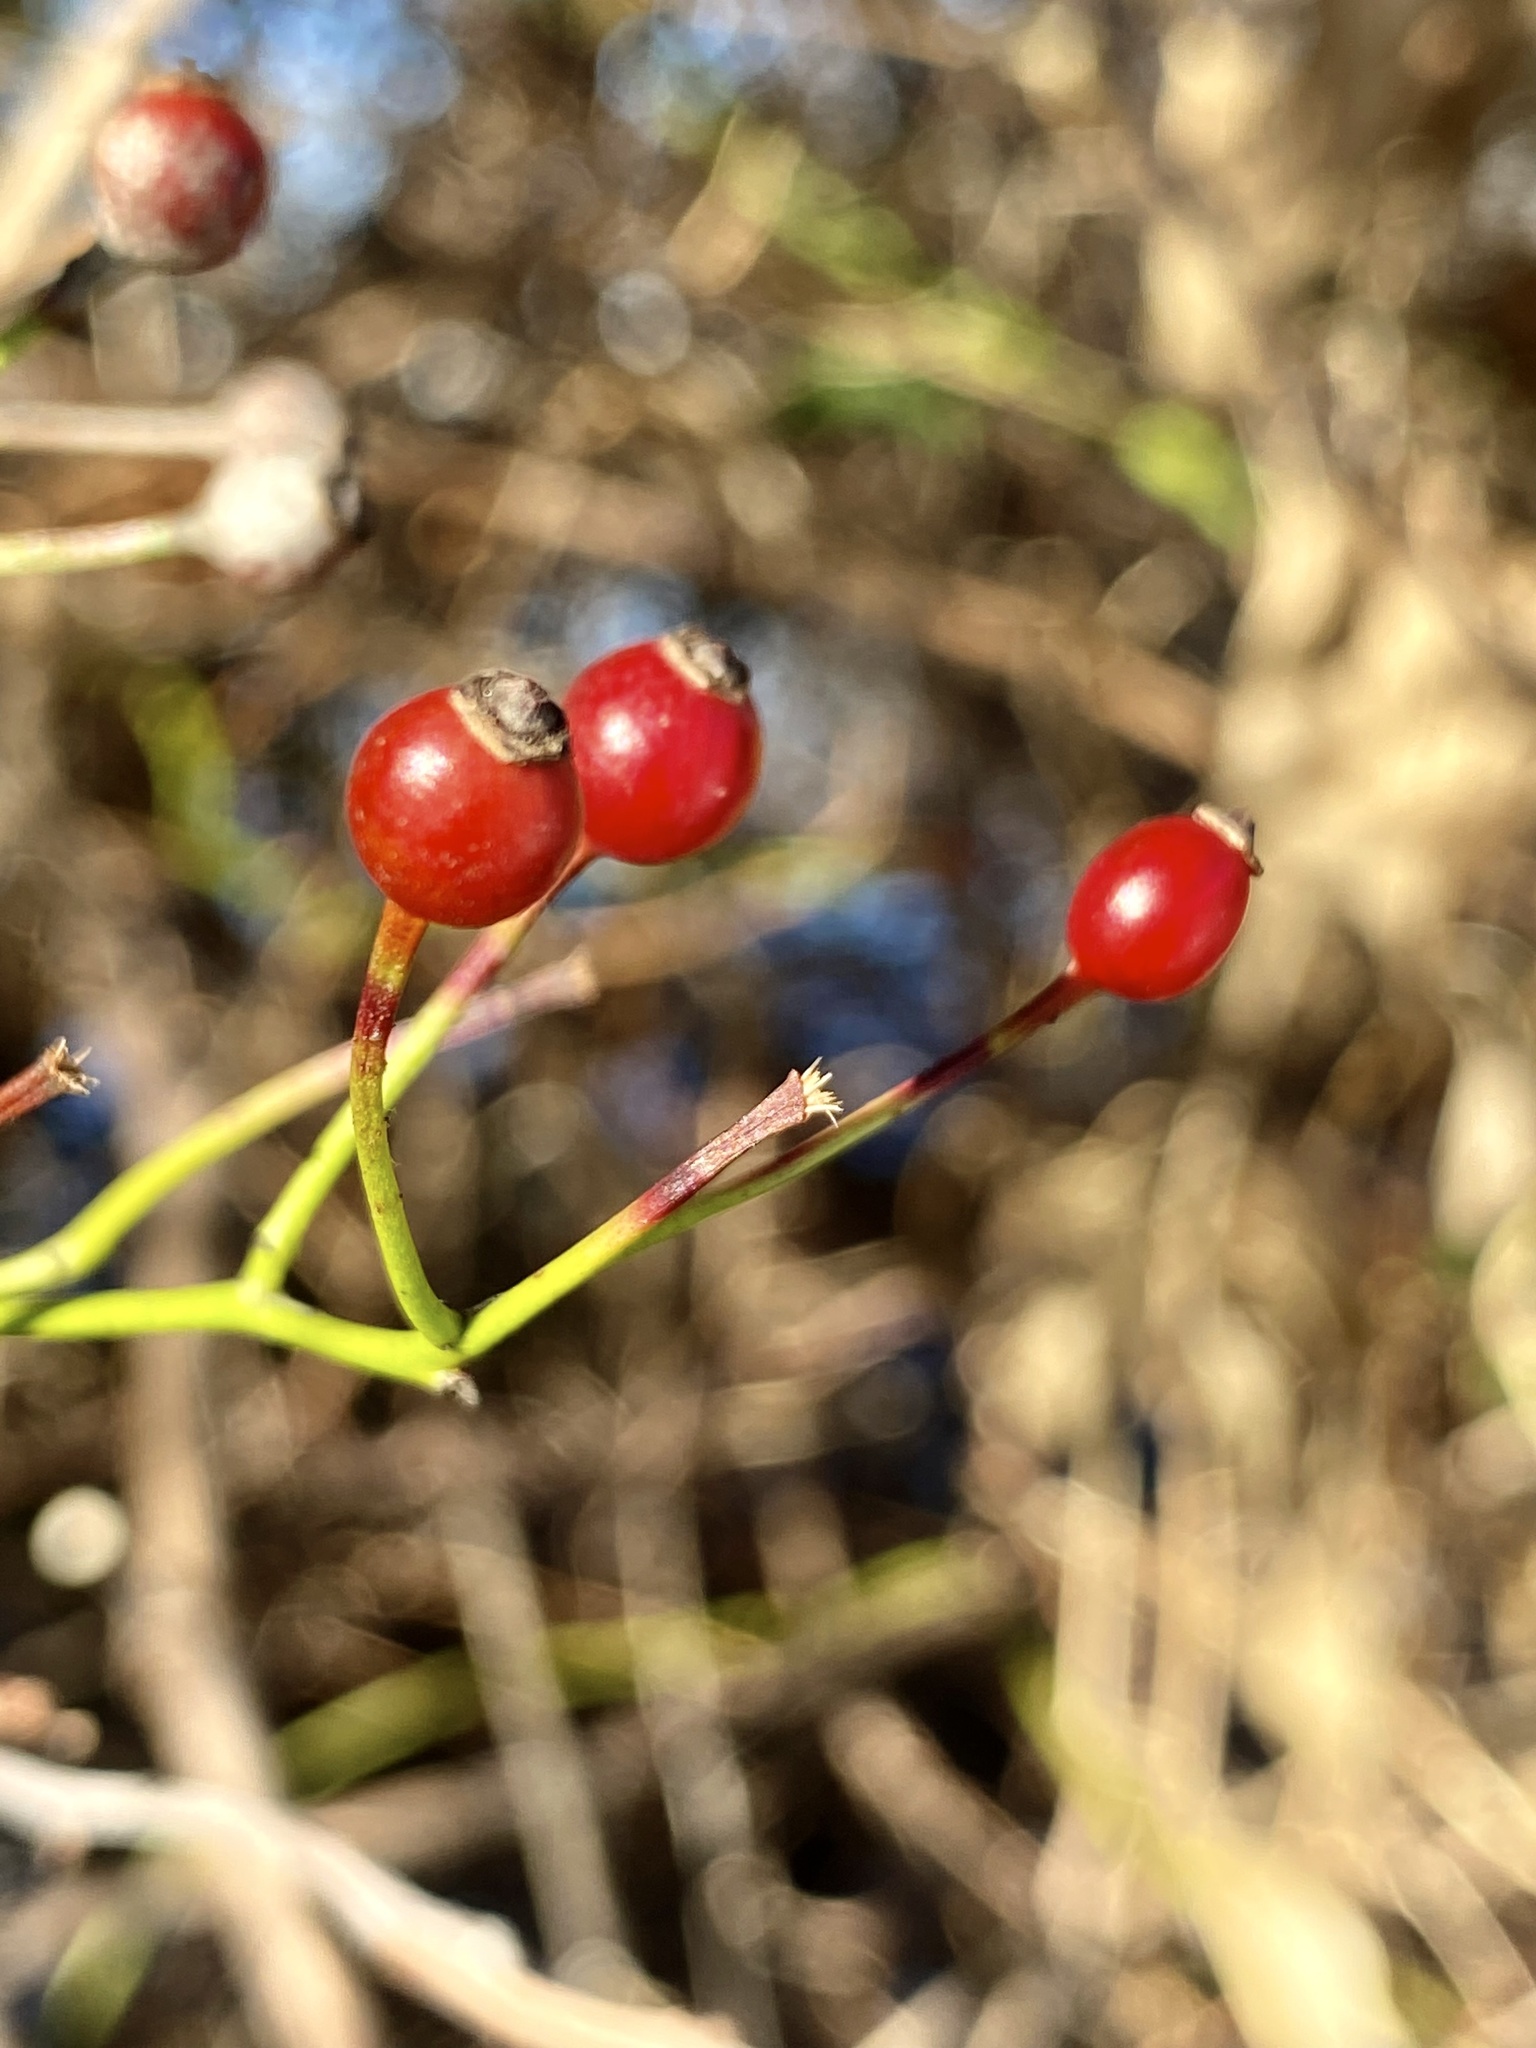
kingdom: Plantae
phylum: Tracheophyta
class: Magnoliopsida
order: Rosales
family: Rosaceae
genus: Rosa
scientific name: Rosa multiflora
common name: Multiflora rose
